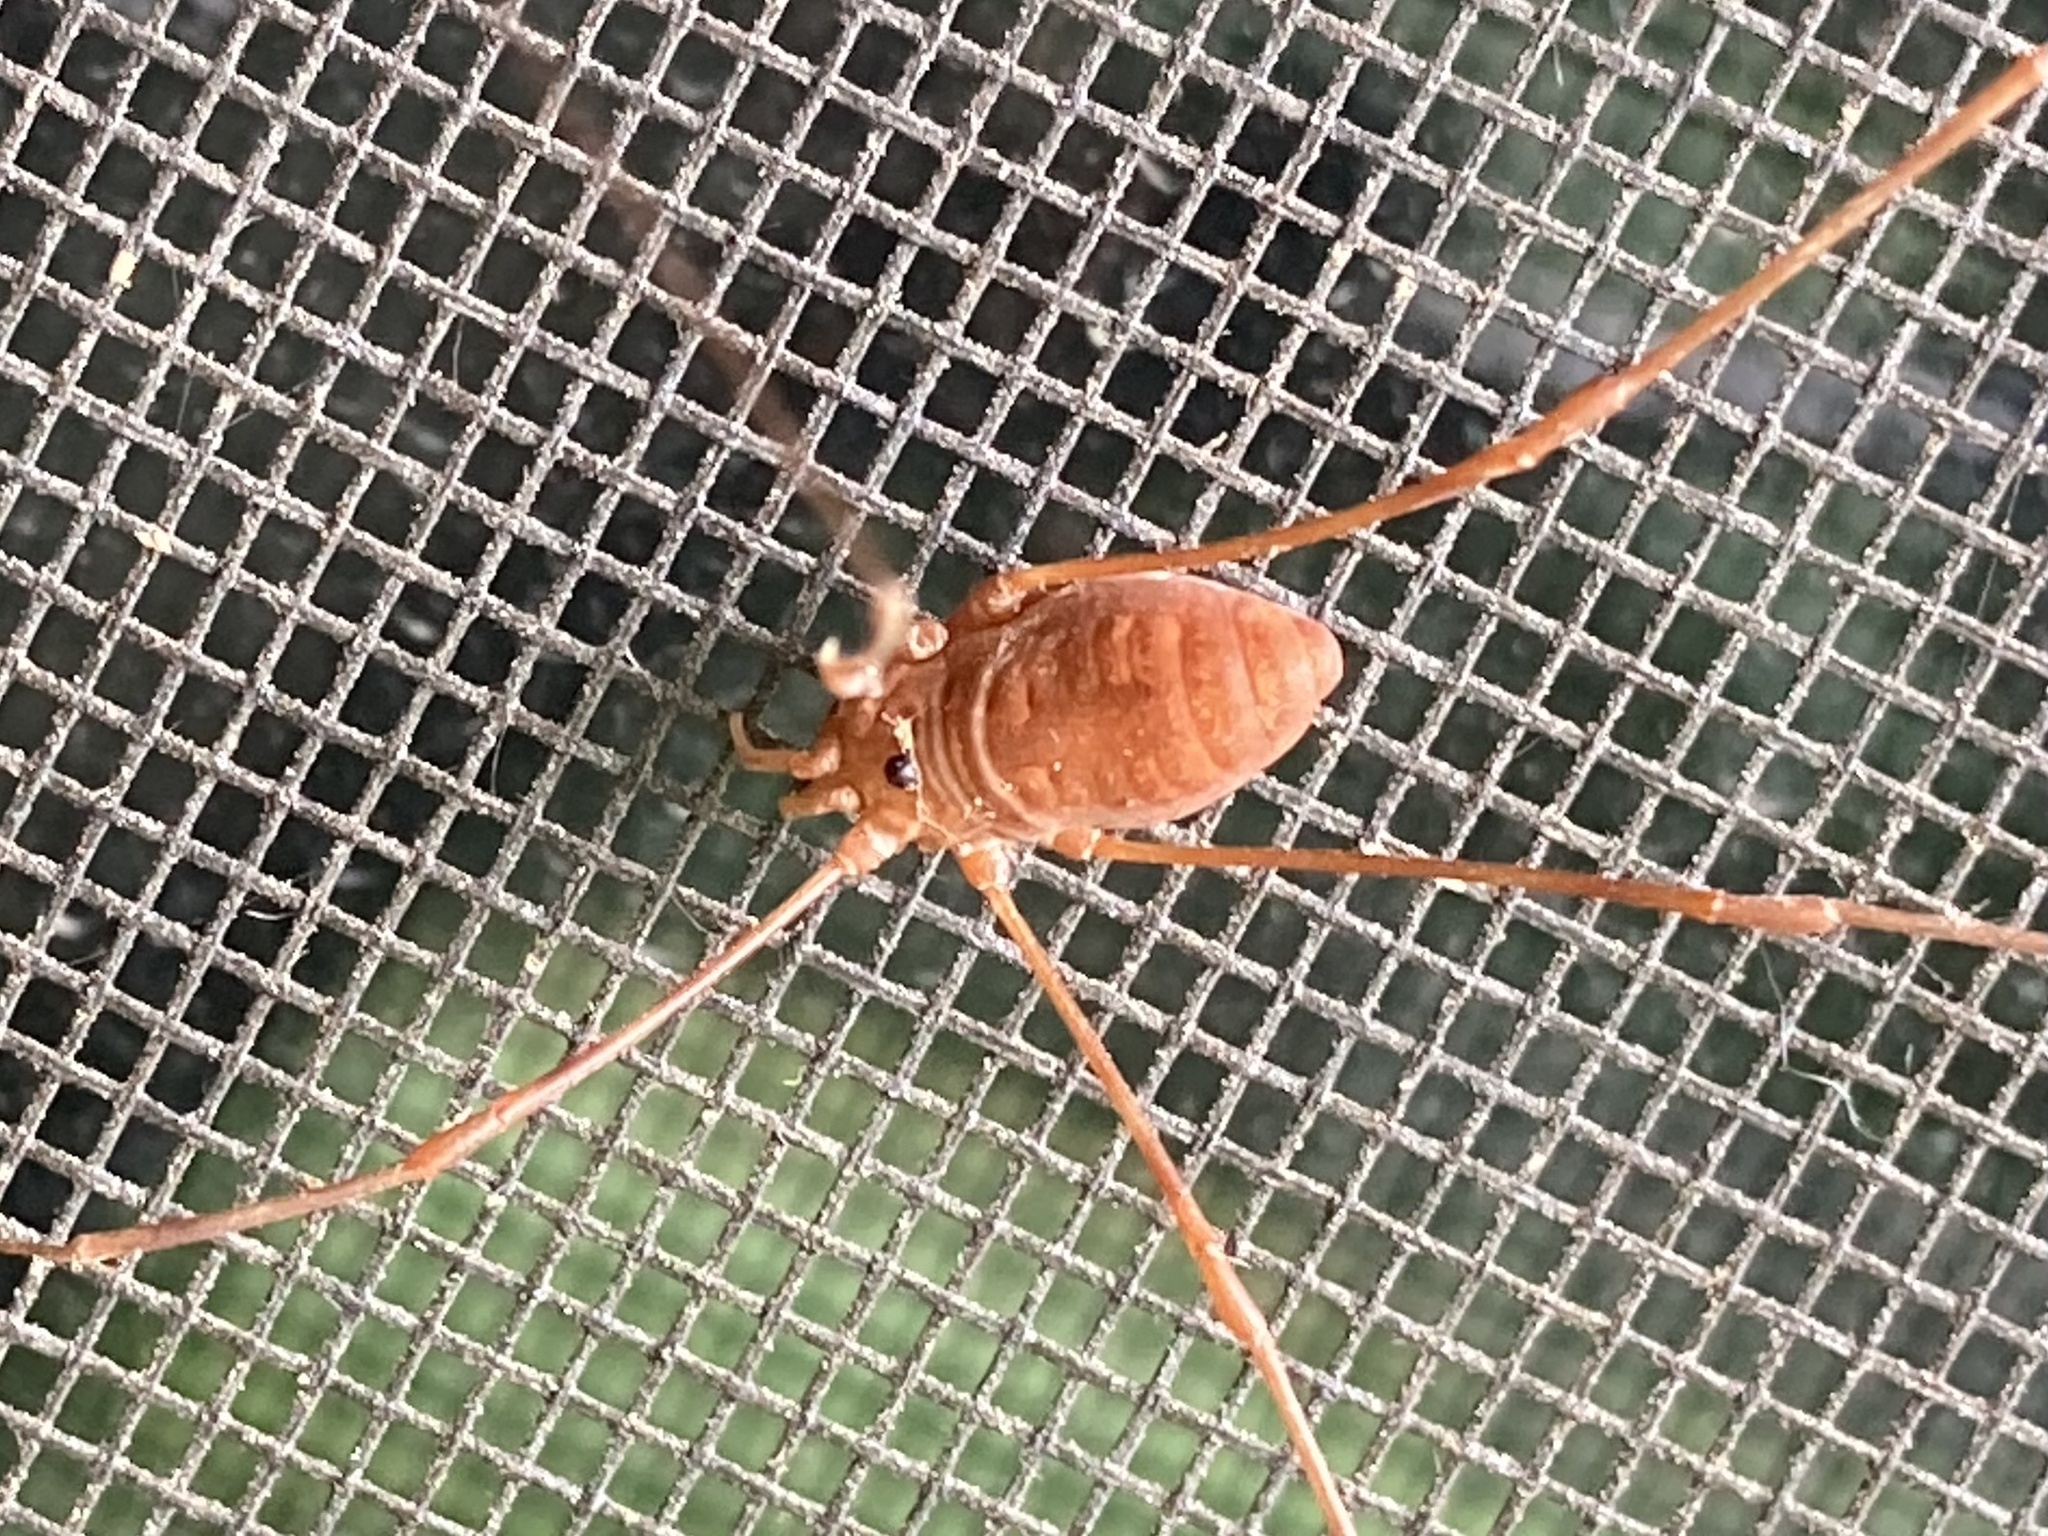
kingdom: Animalia
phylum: Arthropoda
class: Arachnida
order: Opiliones
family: Sclerosomatidae
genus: Leiobunum
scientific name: Leiobunum ventricosum
